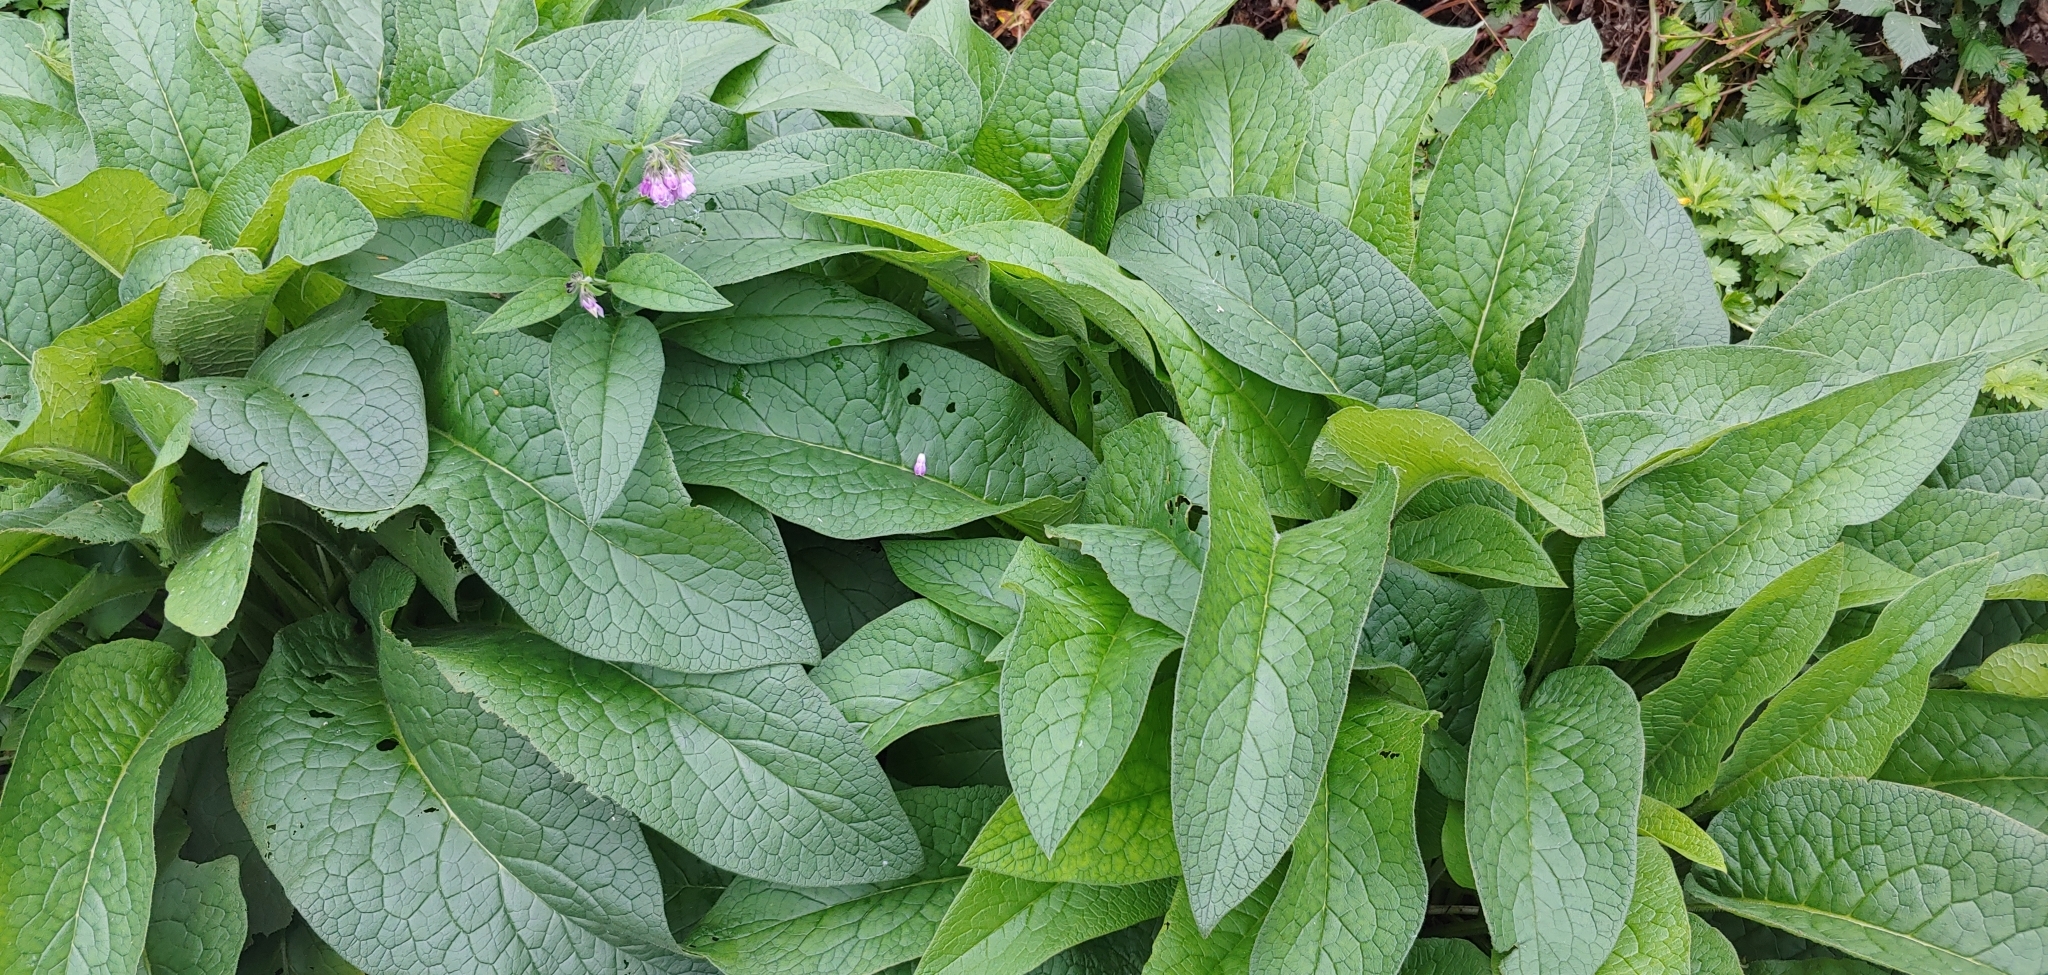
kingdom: Plantae
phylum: Tracheophyta
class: Magnoliopsida
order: Boraginales
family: Boraginaceae
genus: Symphytum
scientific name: Symphytum officinale
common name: Common comfrey
